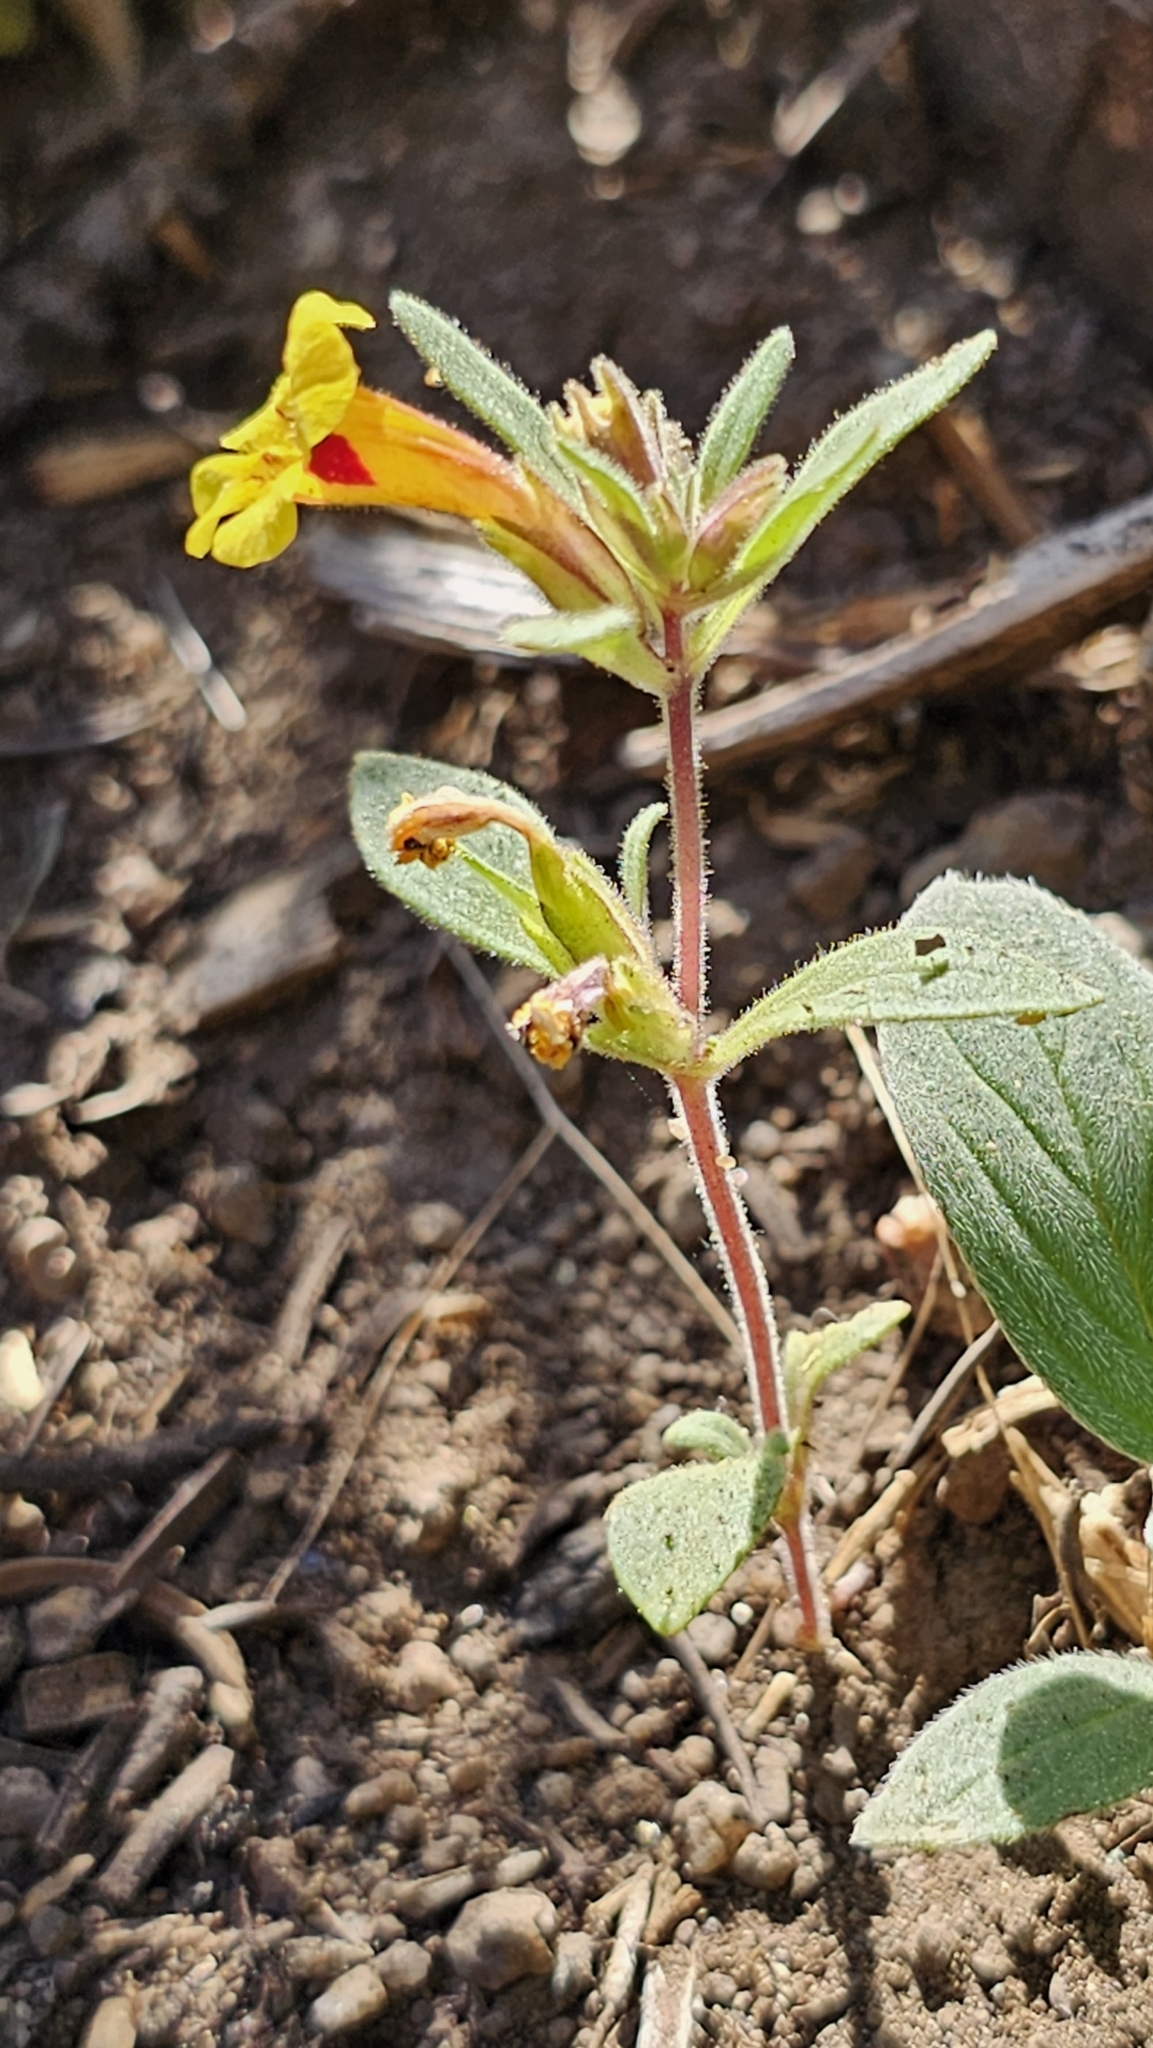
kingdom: Plantae
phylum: Tracheophyta
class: Magnoliopsida
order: Lamiales
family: Phrymaceae
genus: Diplacus
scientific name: Diplacus bicolor
